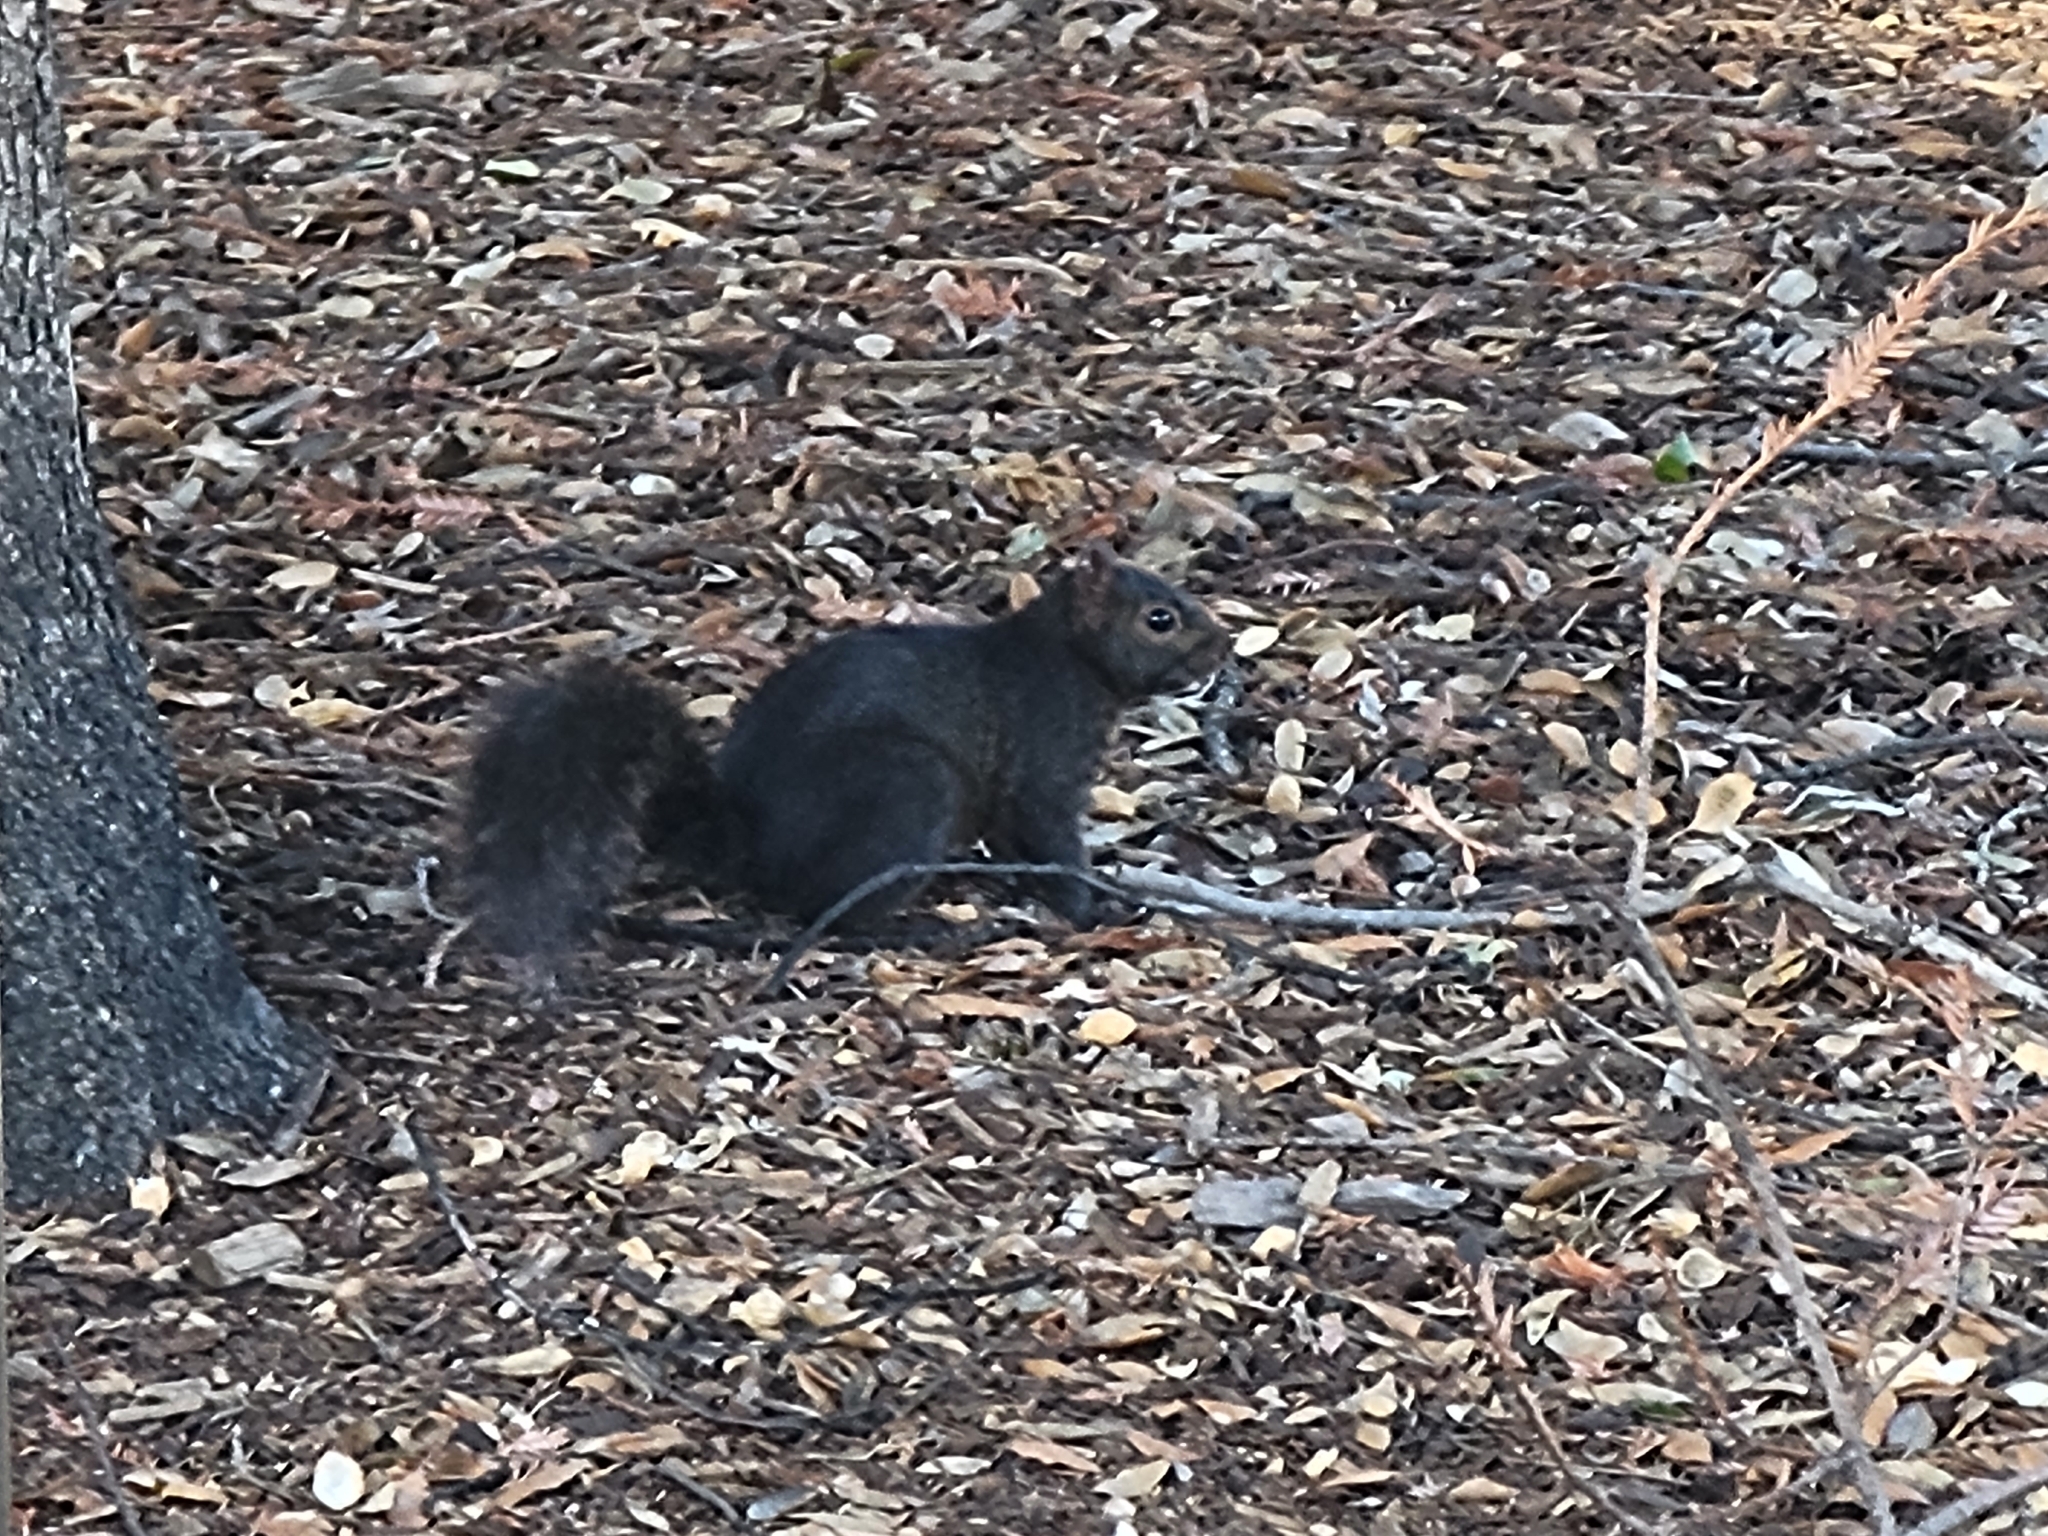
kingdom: Animalia
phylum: Chordata
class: Mammalia
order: Rodentia
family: Sciuridae
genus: Sciurus
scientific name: Sciurus carolinensis
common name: Eastern gray squirrel
